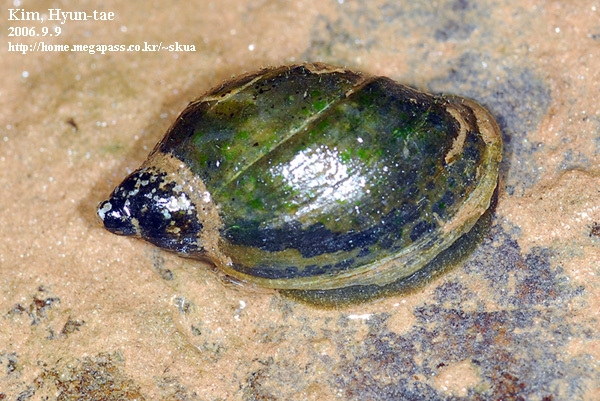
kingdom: Animalia
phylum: Mollusca
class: Gastropoda
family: Lymnaeidae
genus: Radix
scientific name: Radix auricularia
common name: Ear pond snail
